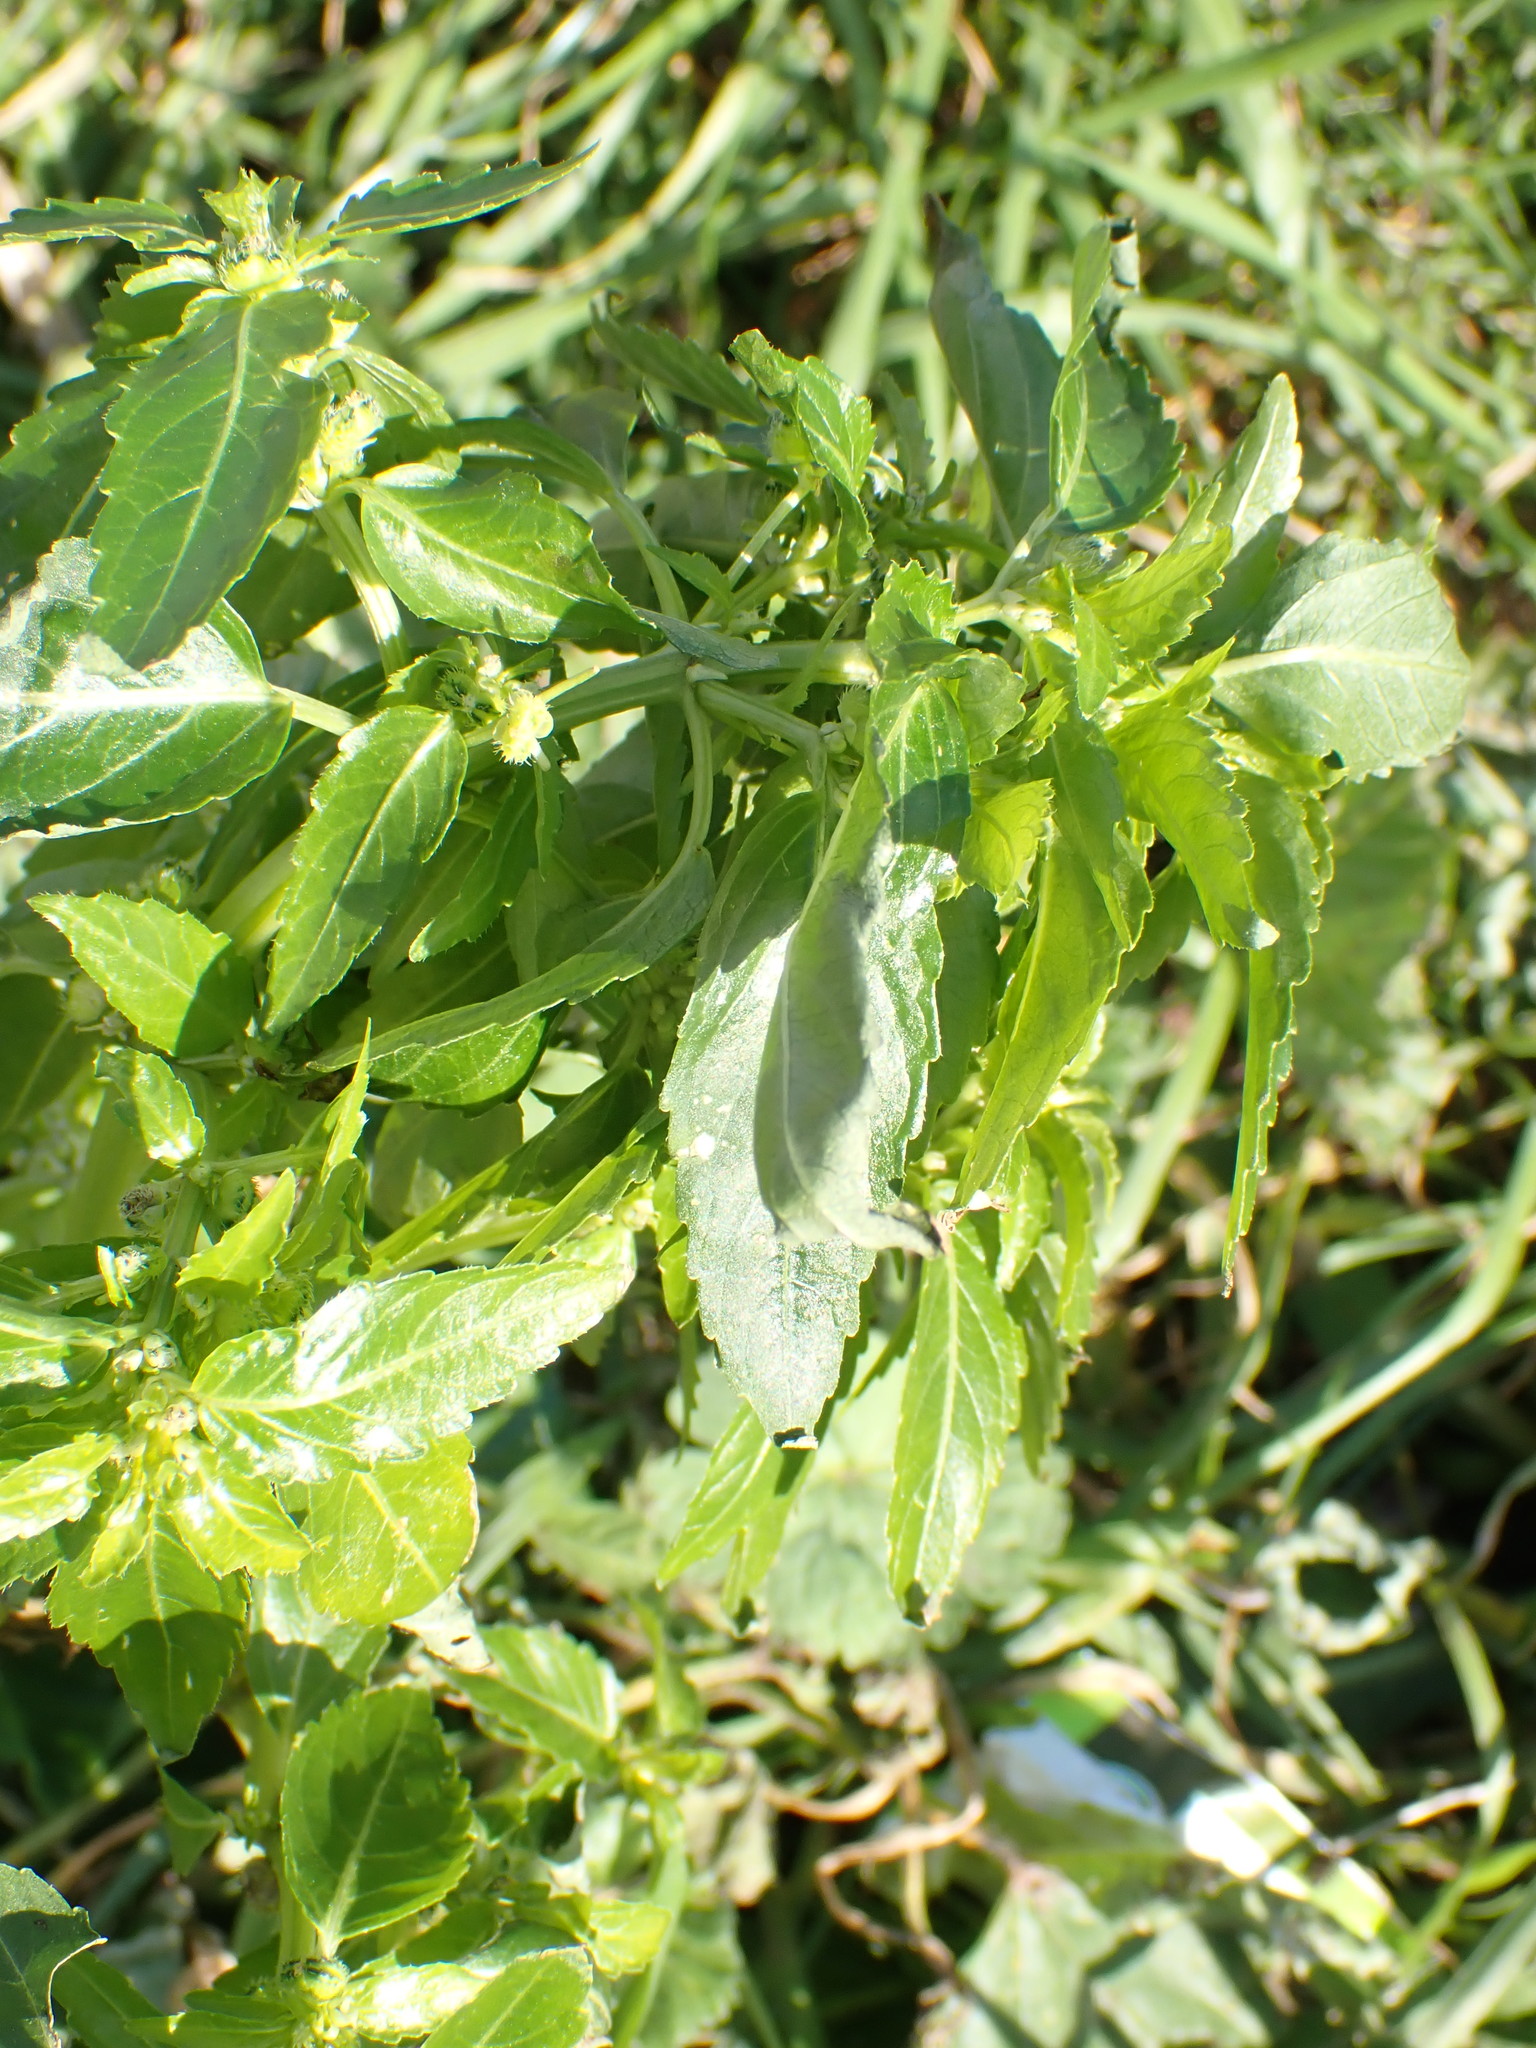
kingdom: Plantae
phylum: Tracheophyta
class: Magnoliopsida
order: Malpighiales
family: Euphorbiaceae
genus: Mercurialis
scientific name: Mercurialis annua
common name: Annual mercury
